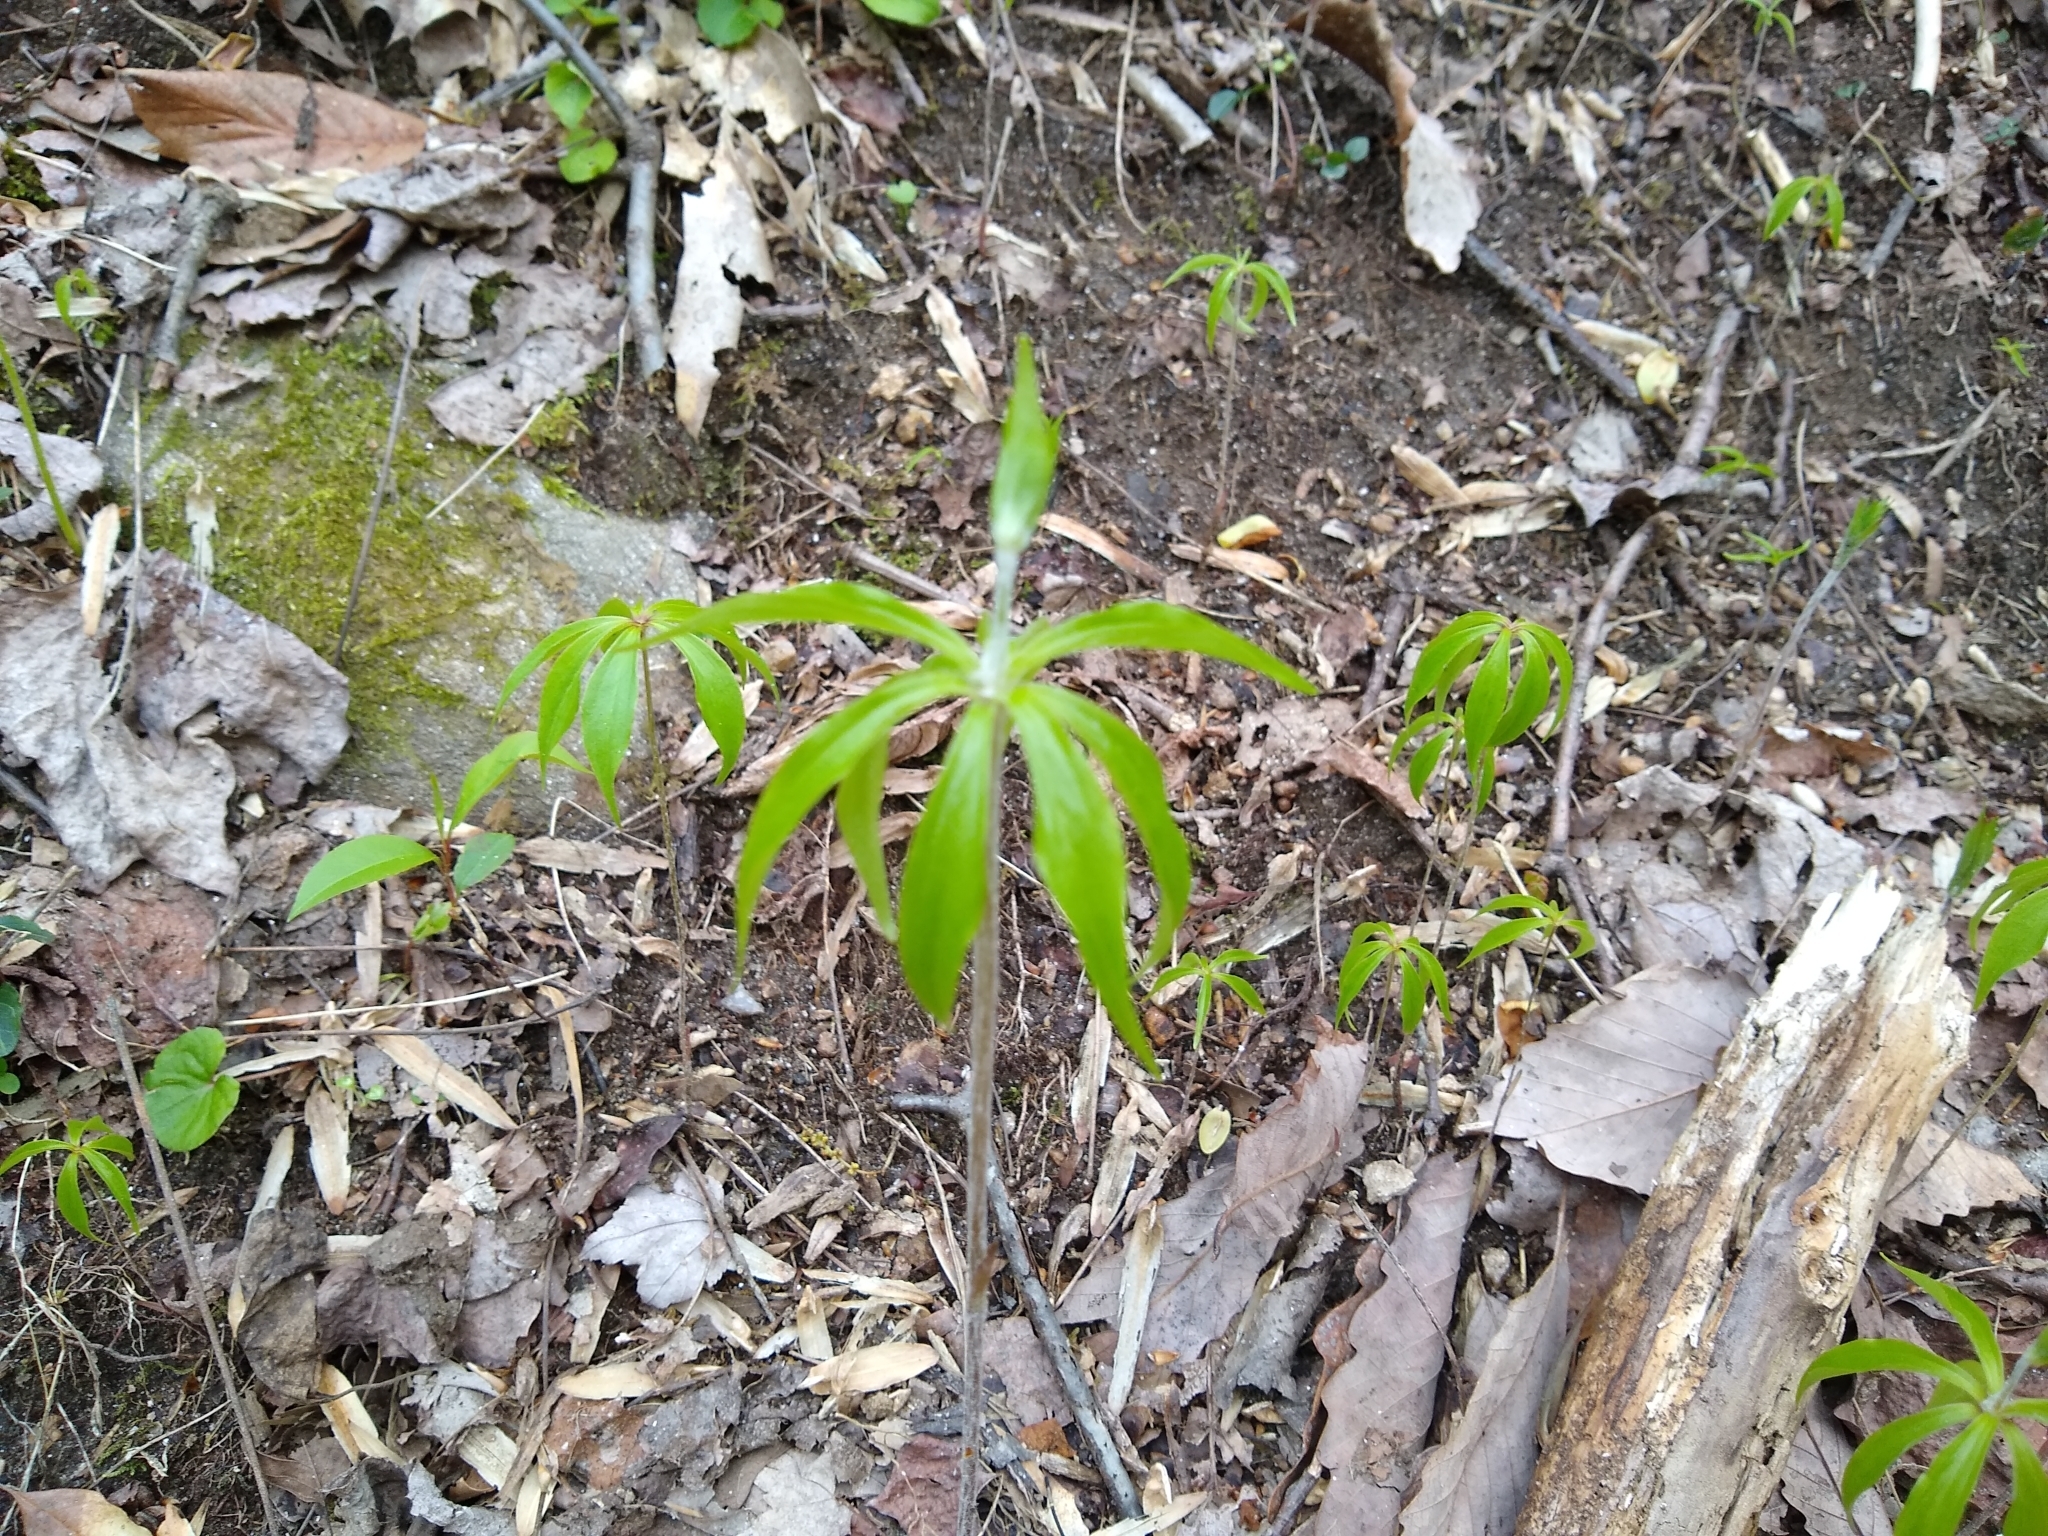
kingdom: Plantae
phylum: Tracheophyta
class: Liliopsida
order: Liliales
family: Liliaceae
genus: Medeola
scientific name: Medeola virginiana
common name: Indian cucumber-root
